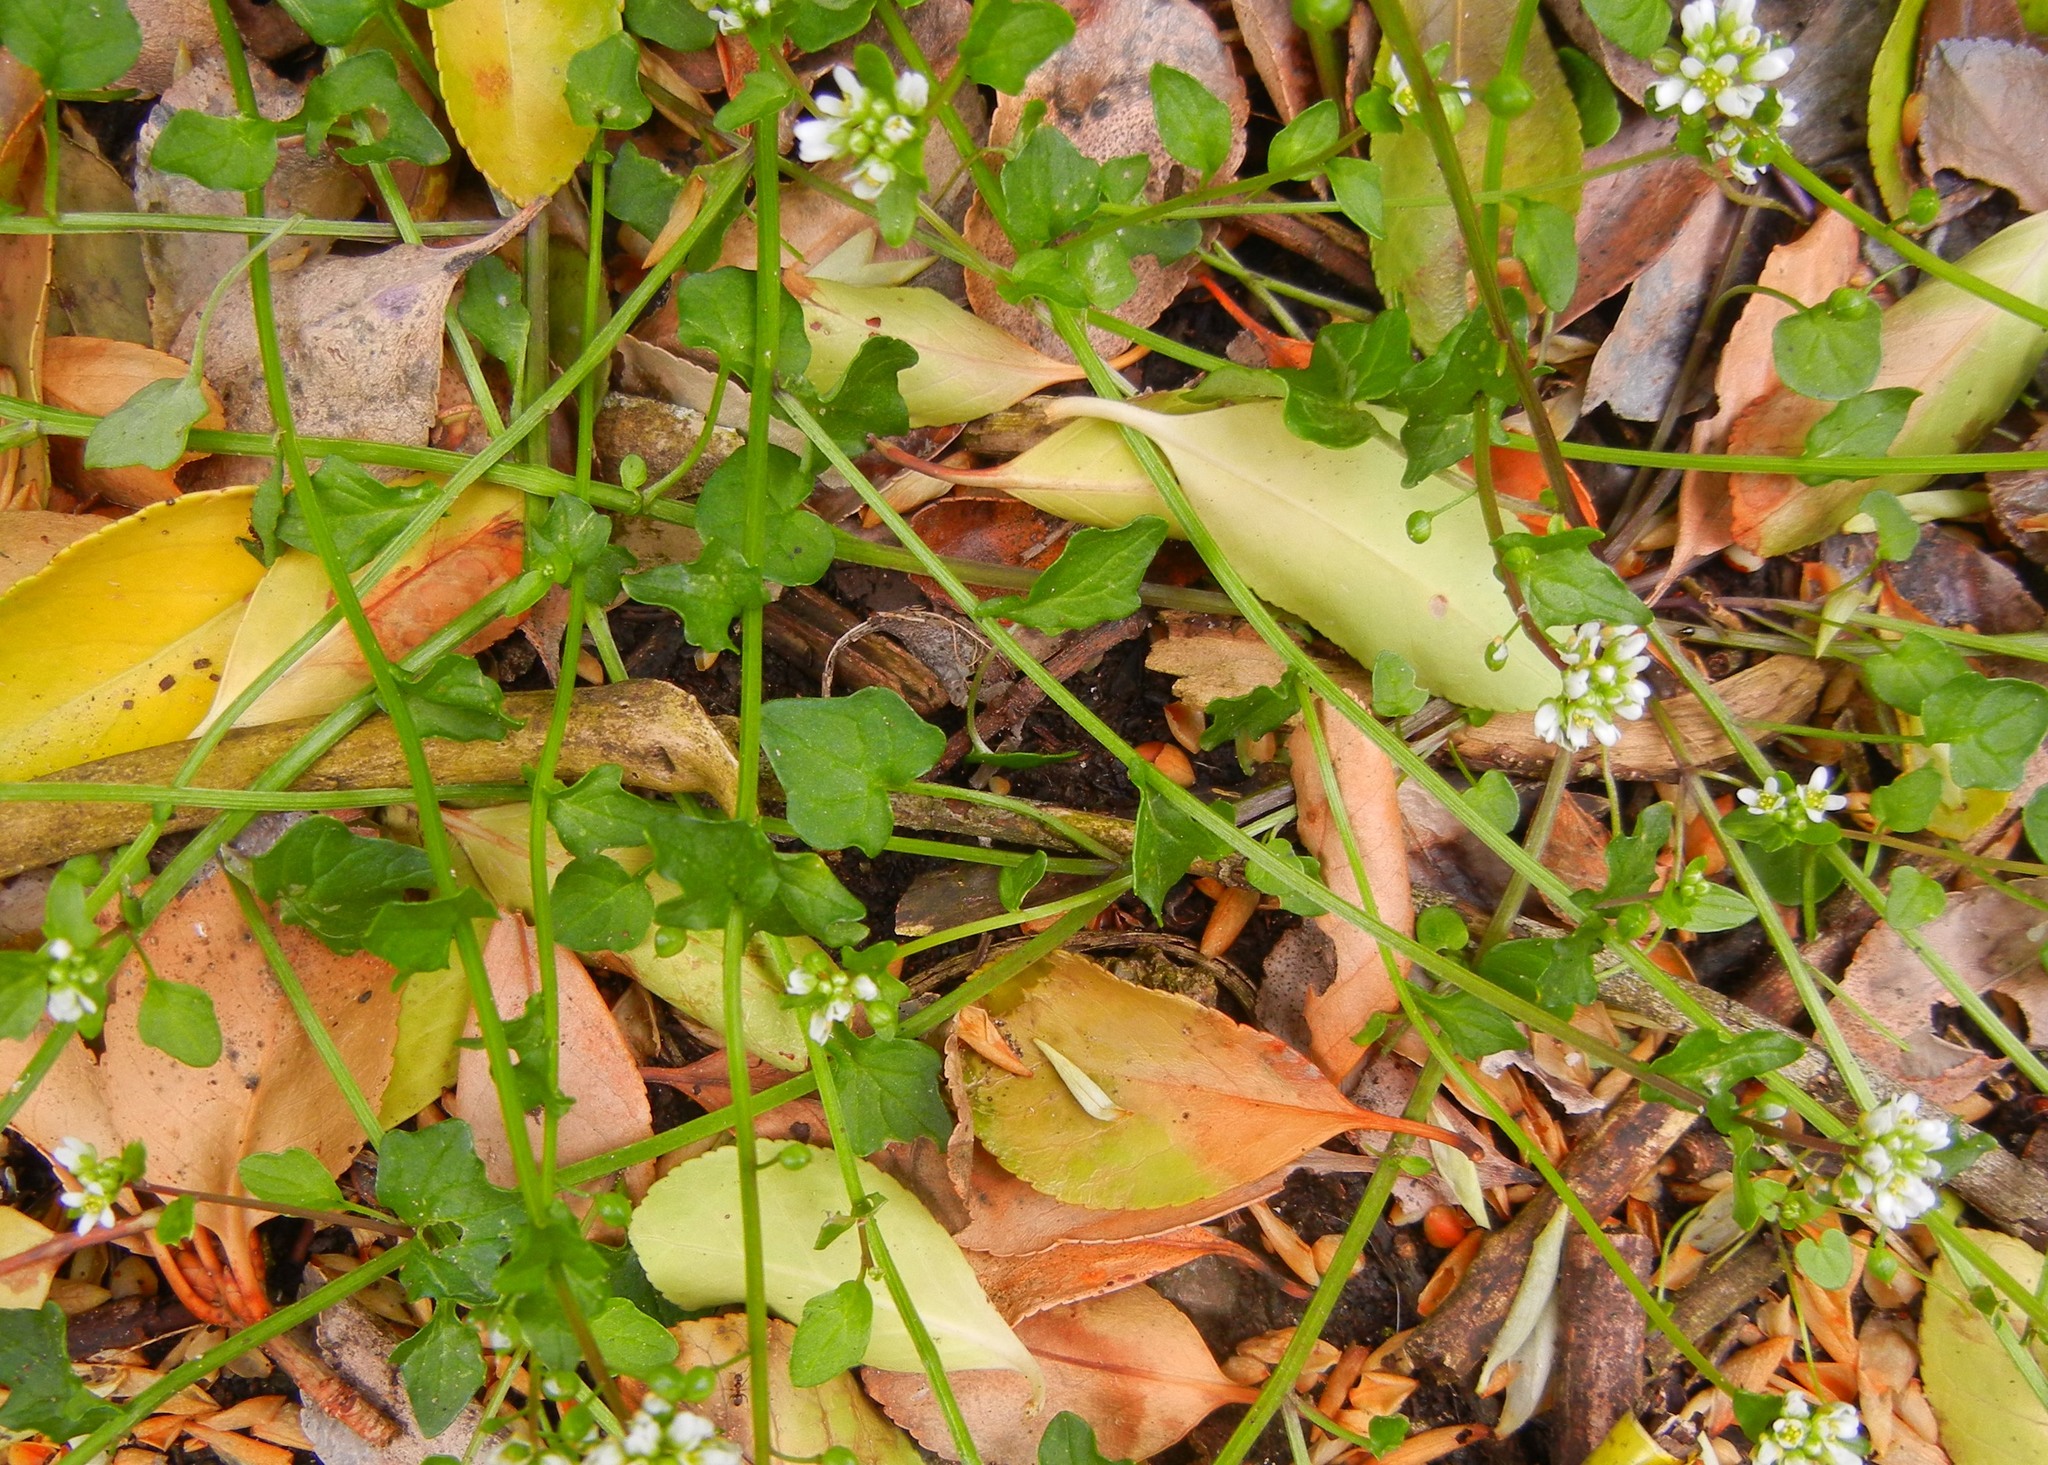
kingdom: Plantae
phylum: Tracheophyta
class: Magnoliopsida
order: Brassicales
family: Brassicaceae
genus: Cochlearia
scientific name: Cochlearia danica
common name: Early scurvygrass
